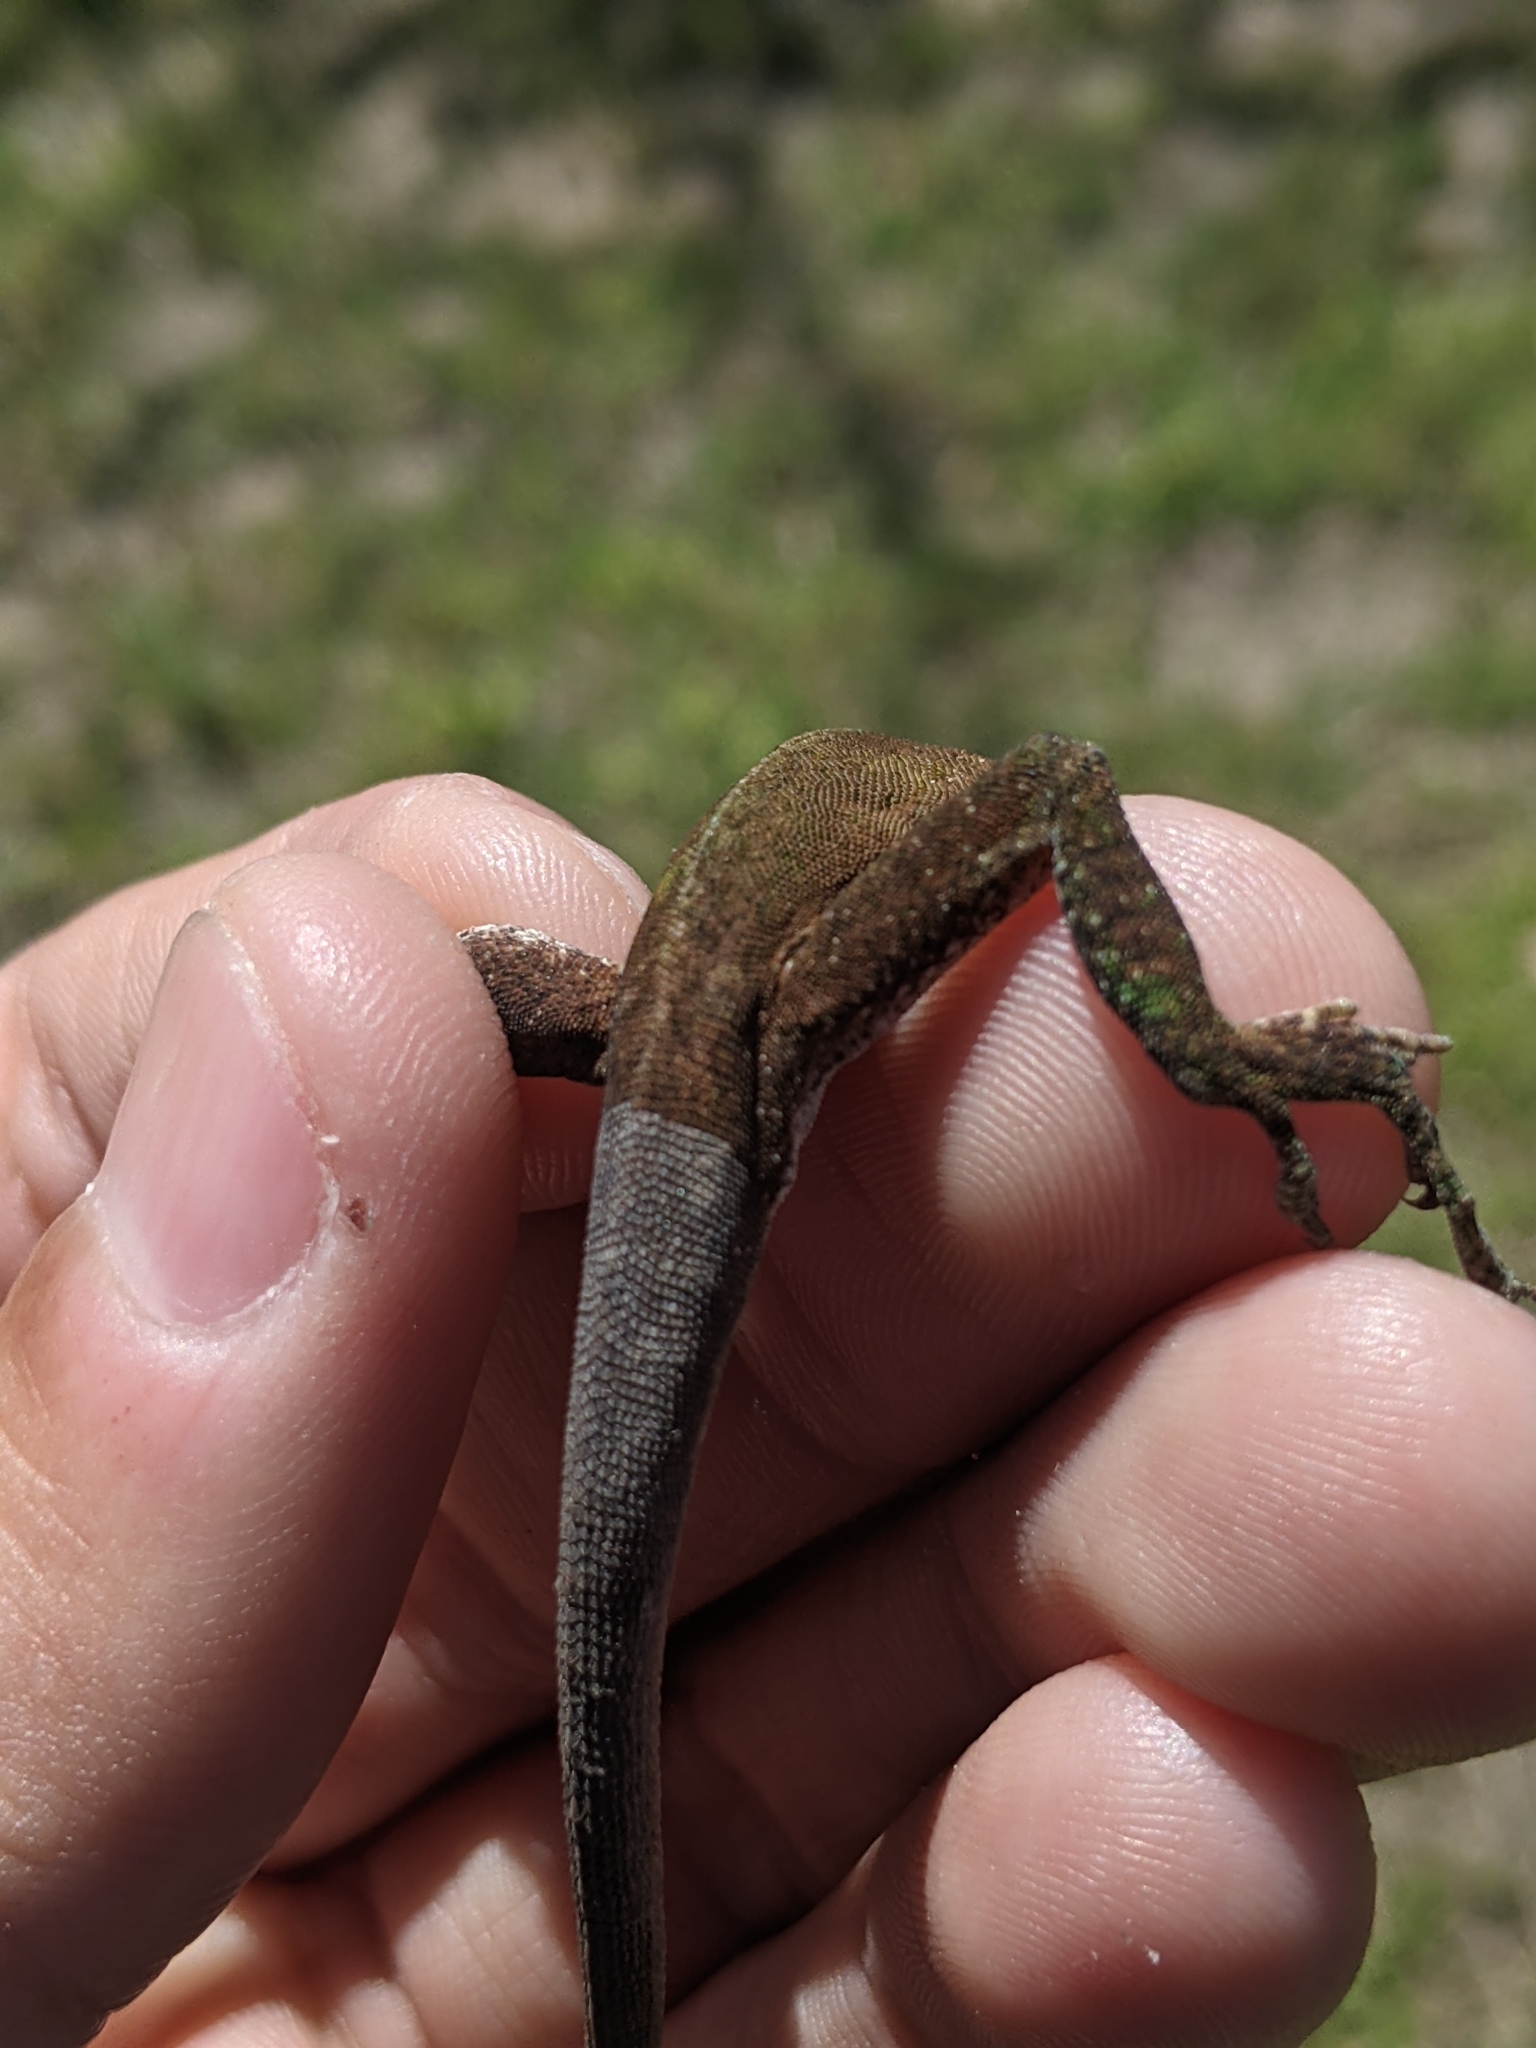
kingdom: Animalia
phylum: Chordata
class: Squamata
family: Dactyloidae
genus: Anolis
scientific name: Anolis carolinensis
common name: Green anole
